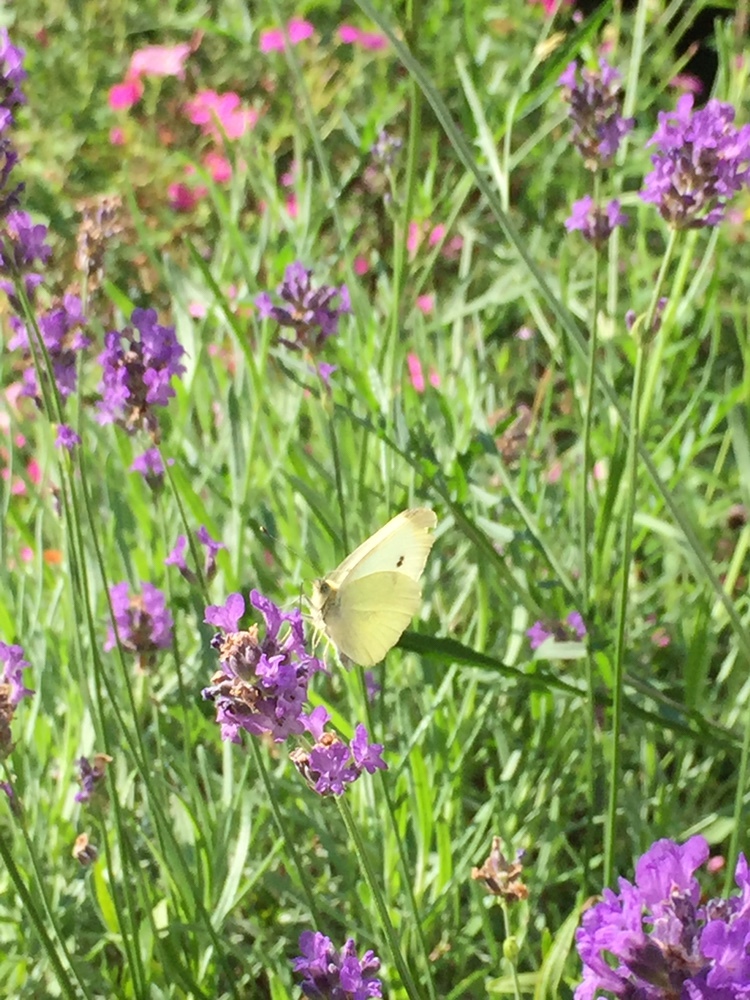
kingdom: Animalia
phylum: Arthropoda
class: Insecta
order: Lepidoptera
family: Pieridae
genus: Pieris
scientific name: Pieris rapae
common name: Small white
